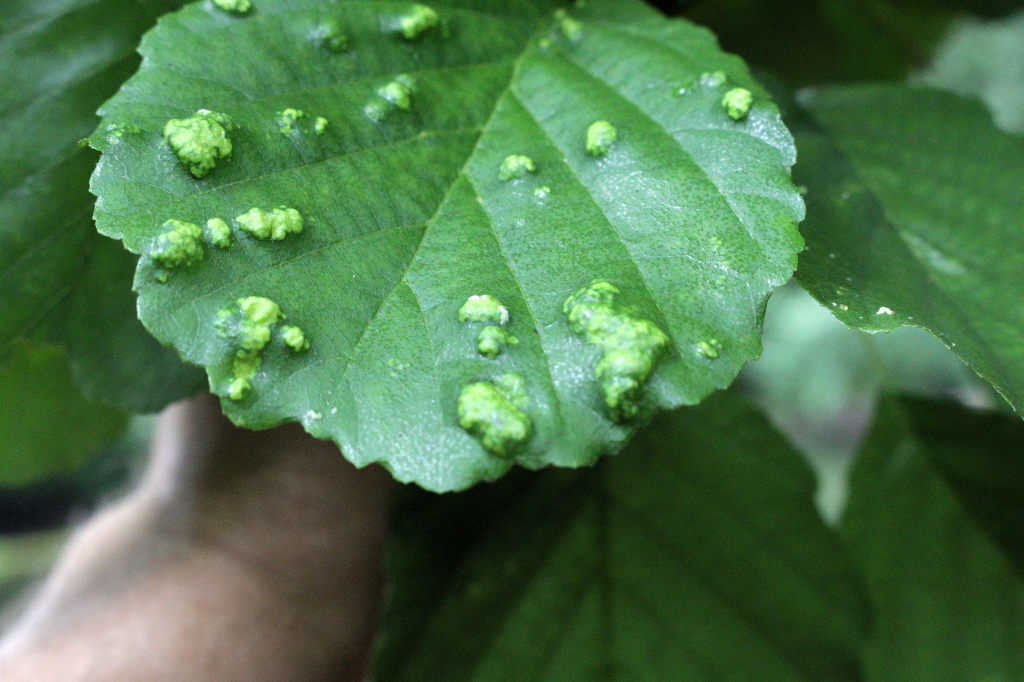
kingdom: Animalia
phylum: Arthropoda
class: Arachnida
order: Trombidiformes
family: Eriophyidae
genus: Acalitus
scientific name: Acalitus brevitarsus
